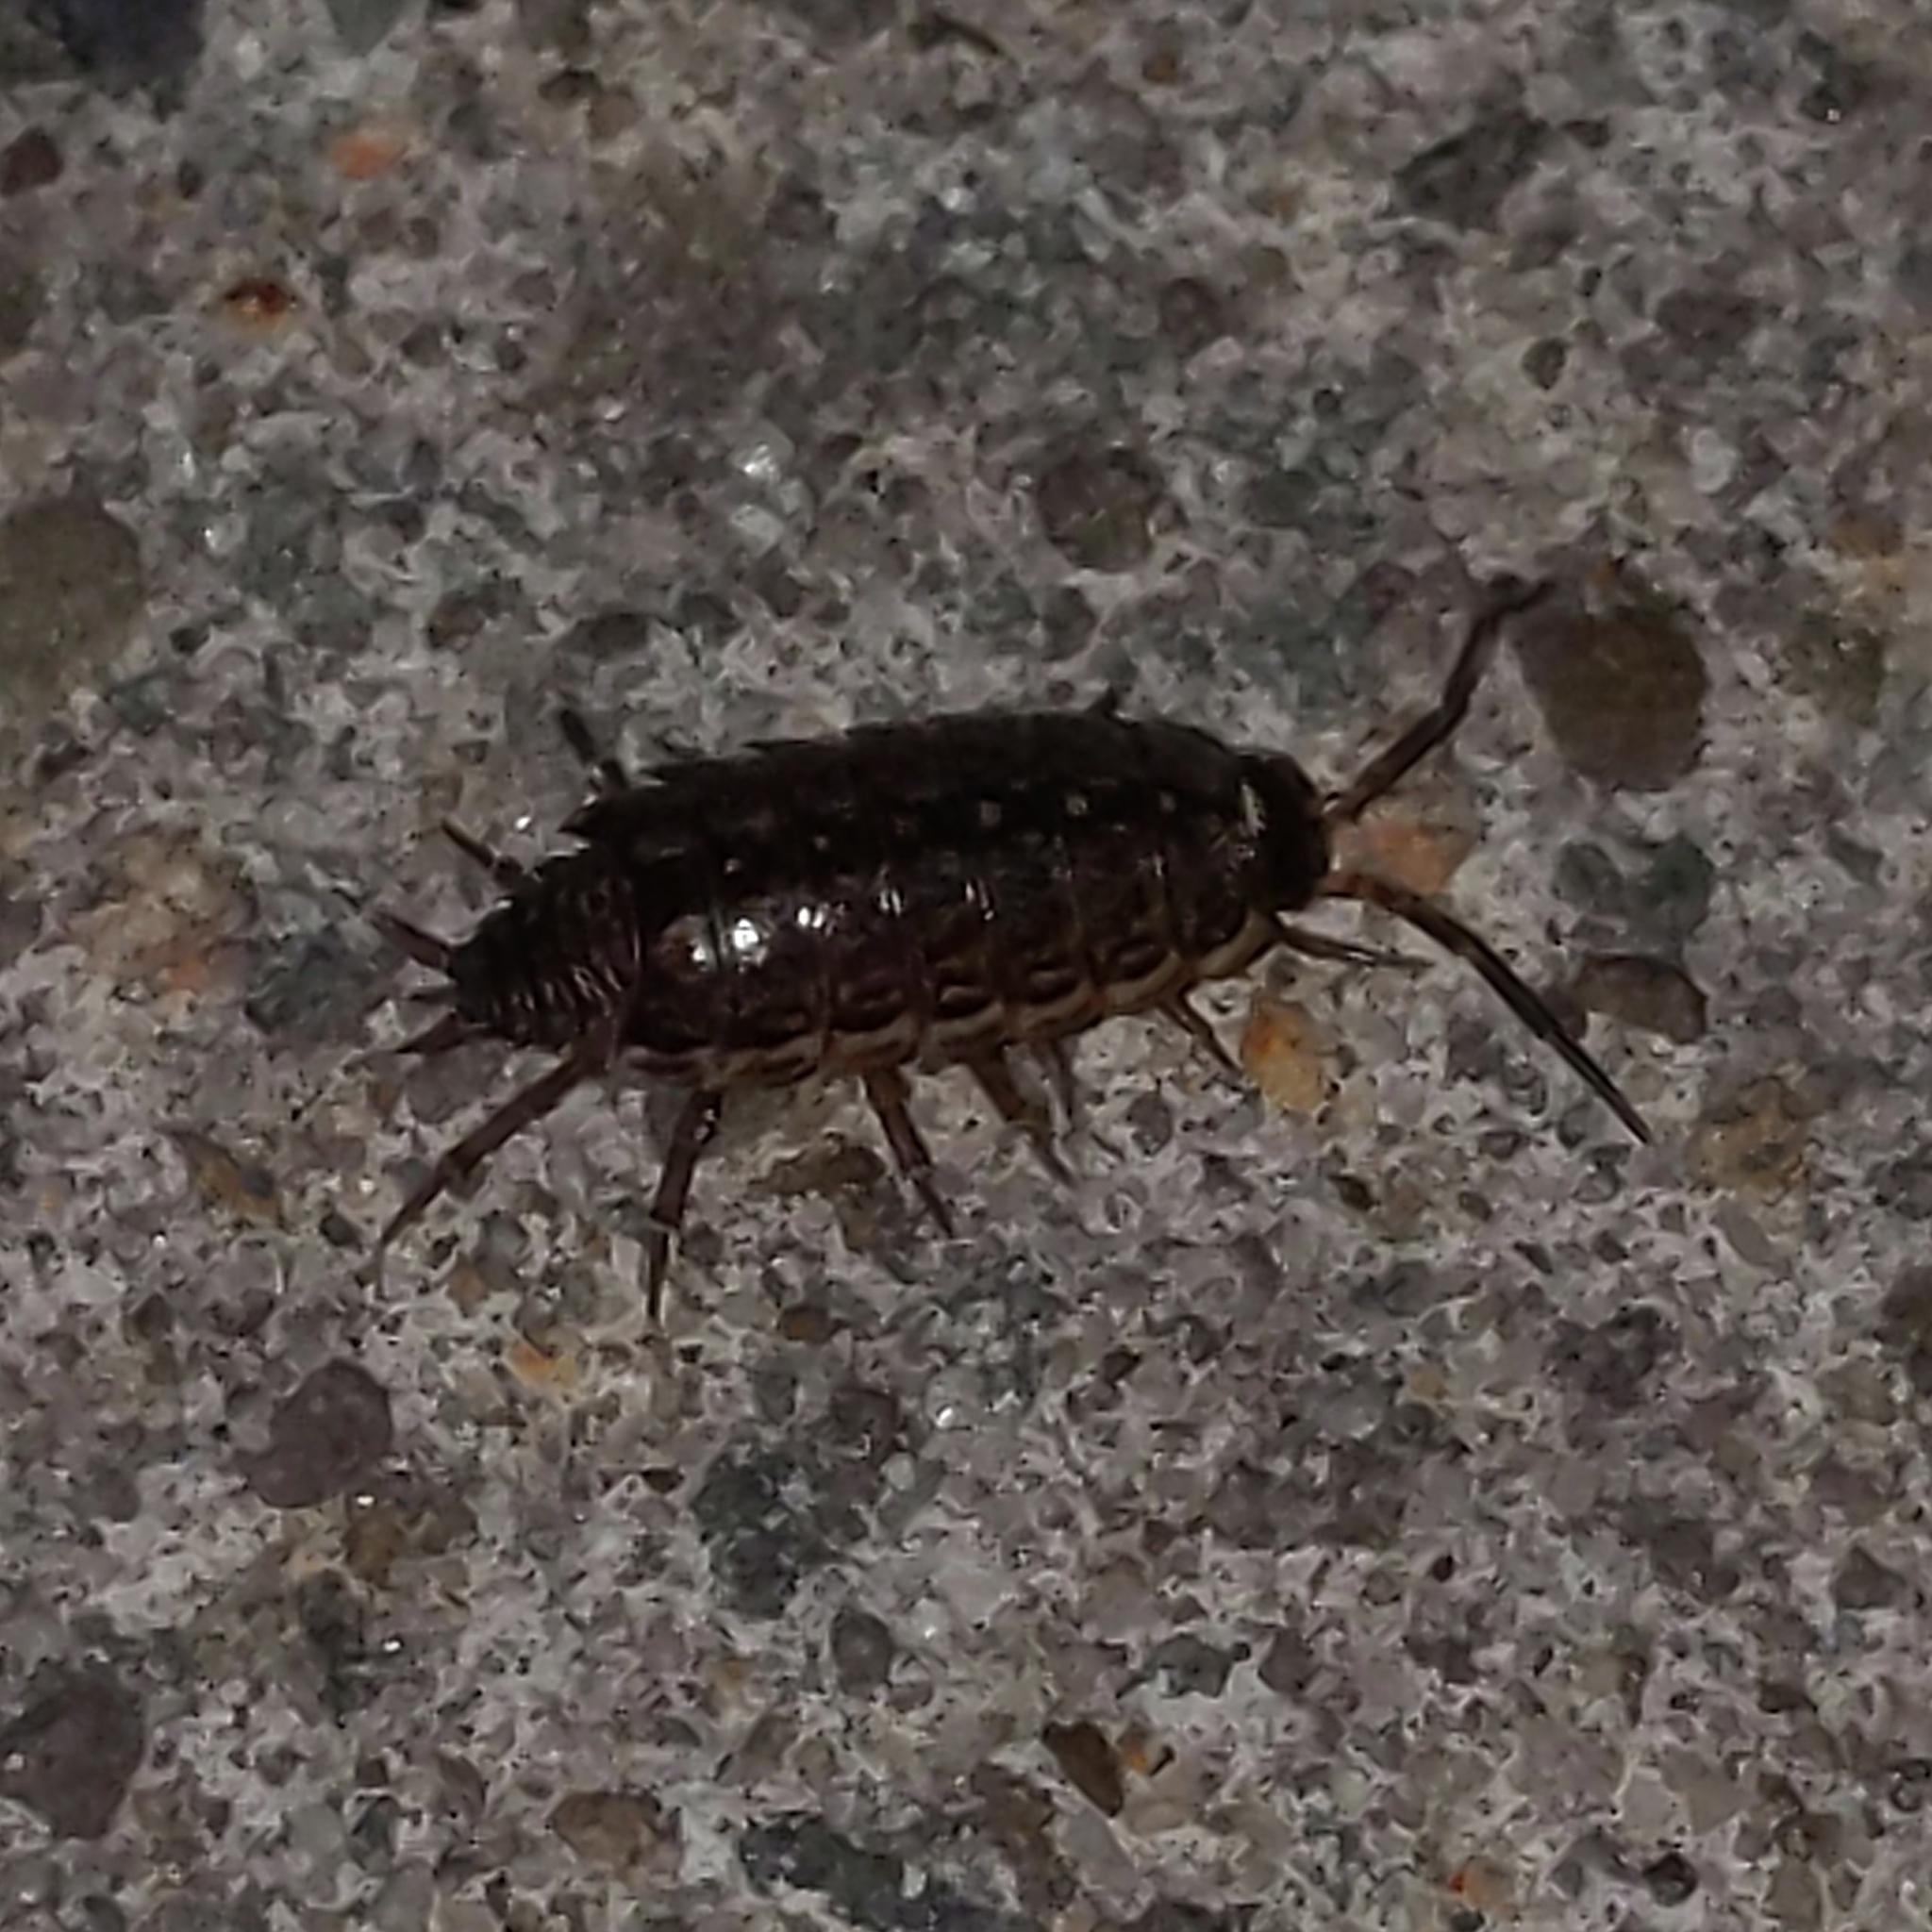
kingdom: Animalia
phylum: Arthropoda
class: Malacostraca
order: Isopoda
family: Philosciidae
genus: Philoscia
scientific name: Philoscia muscorum
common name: Common striped woodlouse
